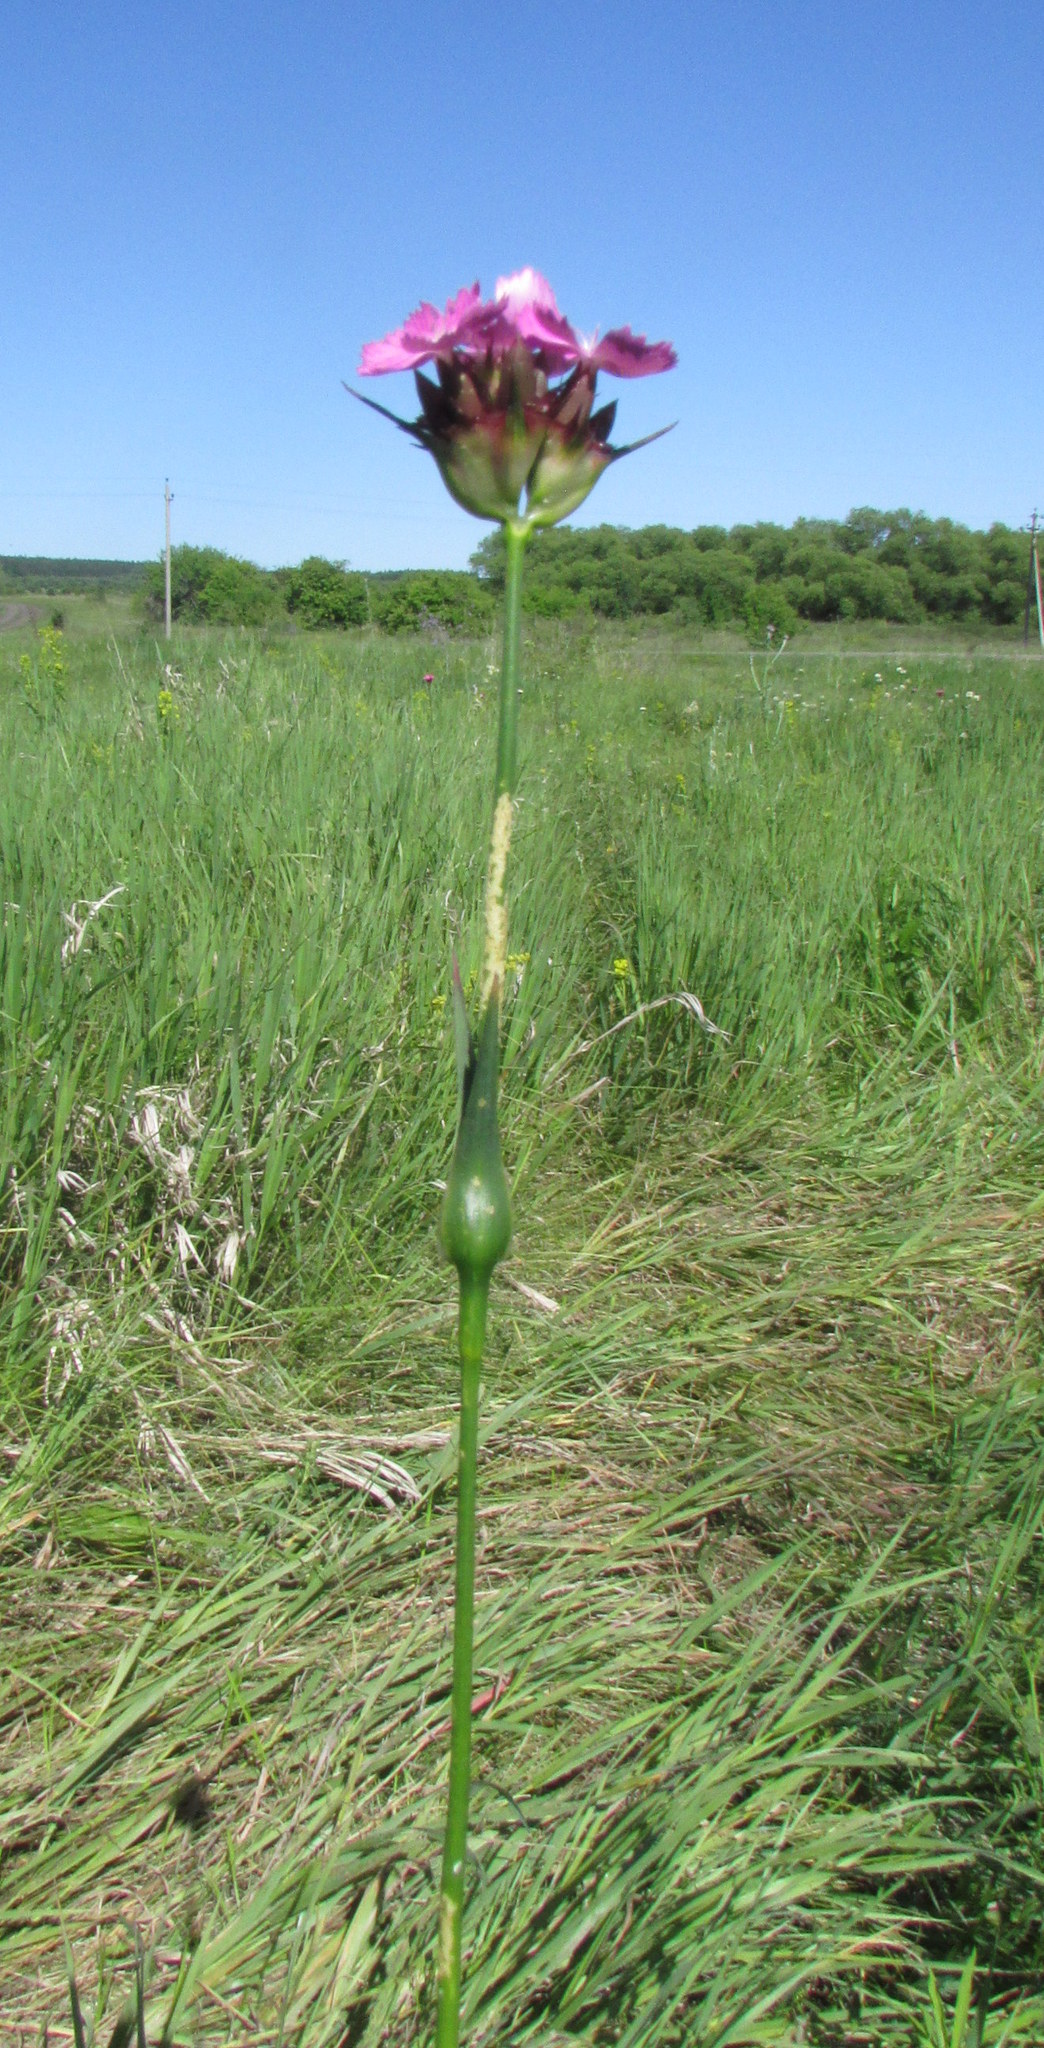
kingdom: Plantae
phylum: Tracheophyta
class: Magnoliopsida
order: Caryophyllales
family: Caryophyllaceae
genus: Dianthus
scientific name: Dianthus capitatus
